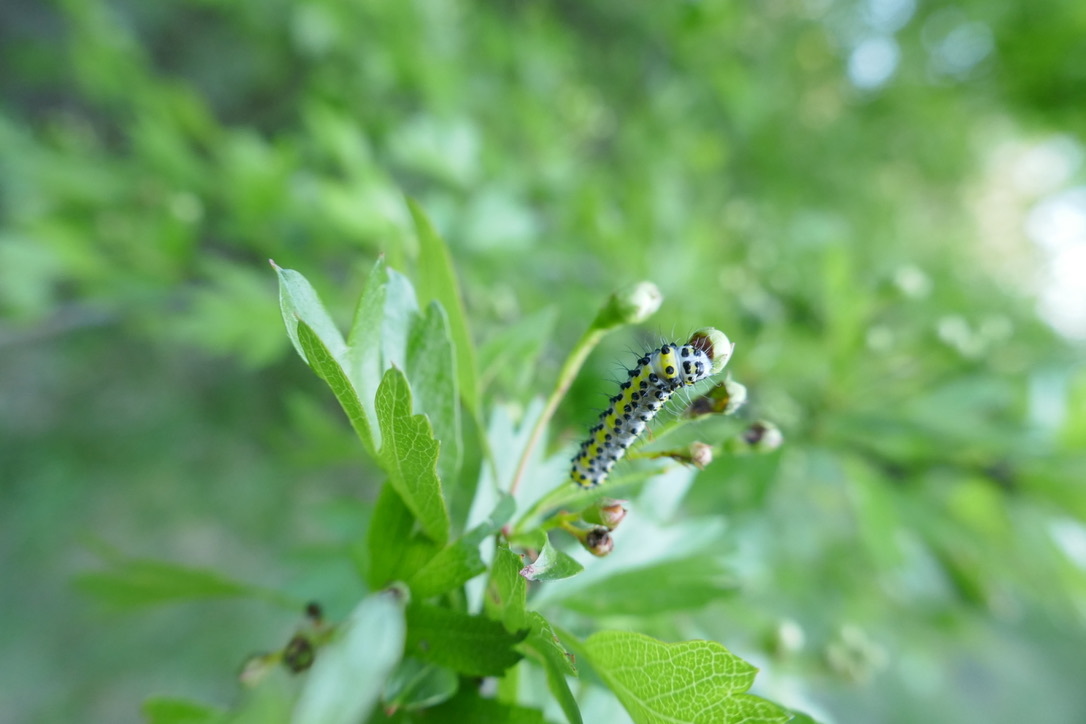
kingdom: Animalia
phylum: Arthropoda
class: Insecta
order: Lepidoptera
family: Noctuidae
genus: Diloba
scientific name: Diloba caeruleocephala
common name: Figure of eight
